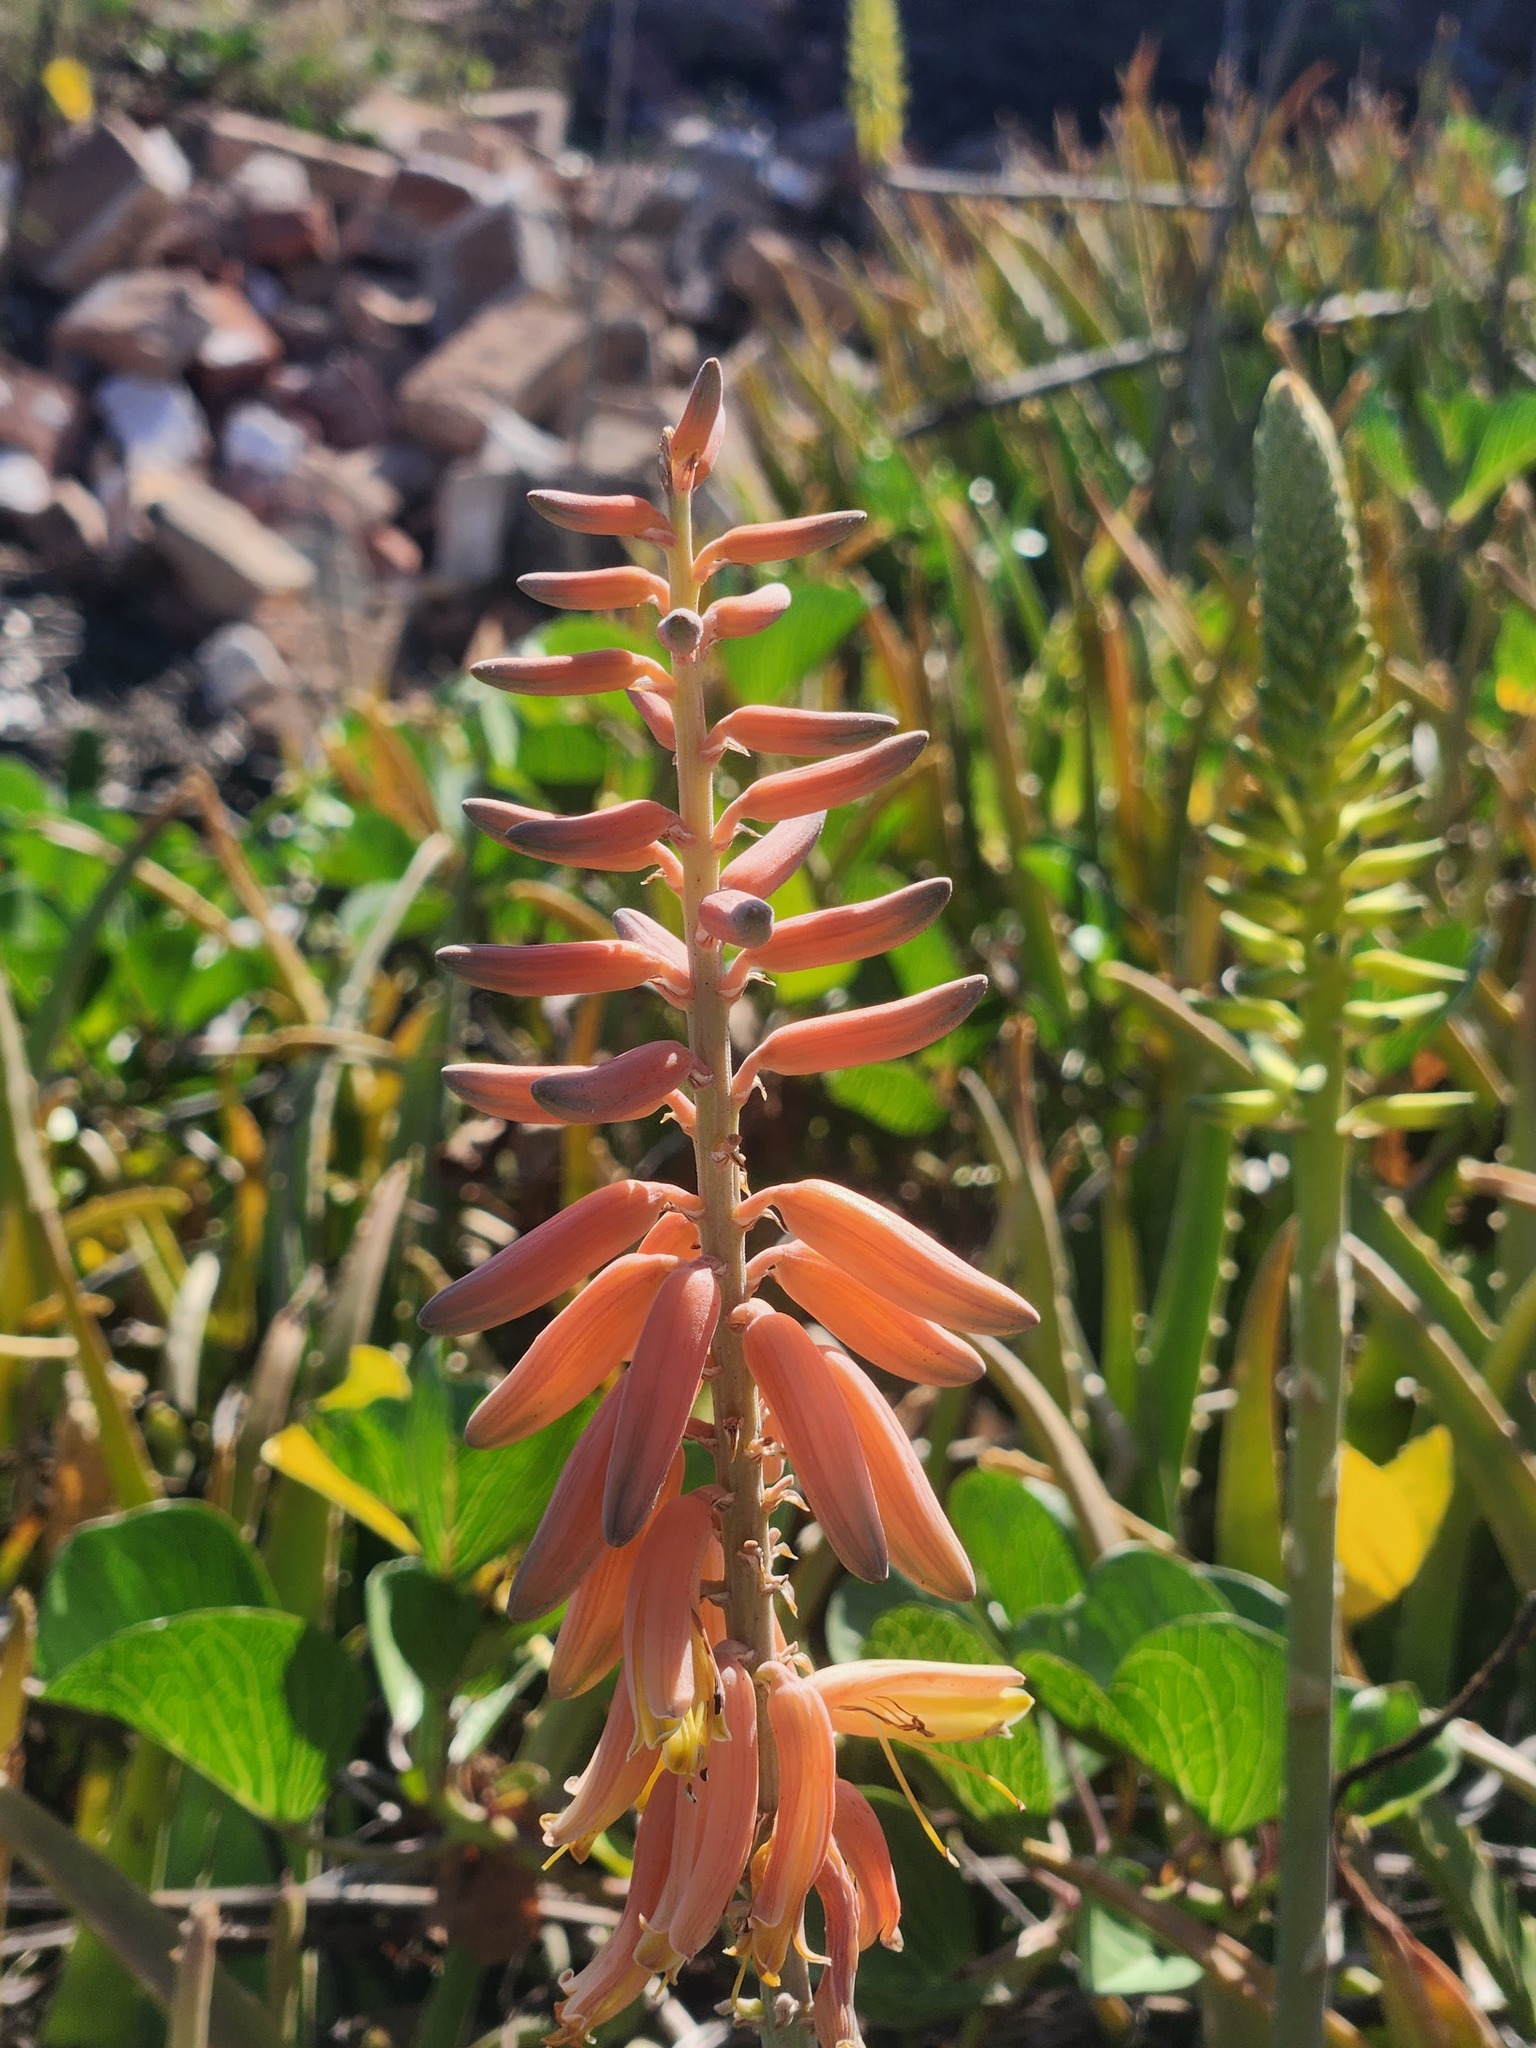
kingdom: Plantae
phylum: Tracheophyta
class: Liliopsida
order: Asparagales
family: Asphodelaceae
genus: Aloe
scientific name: Aloe vera
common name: Barbados aloe
